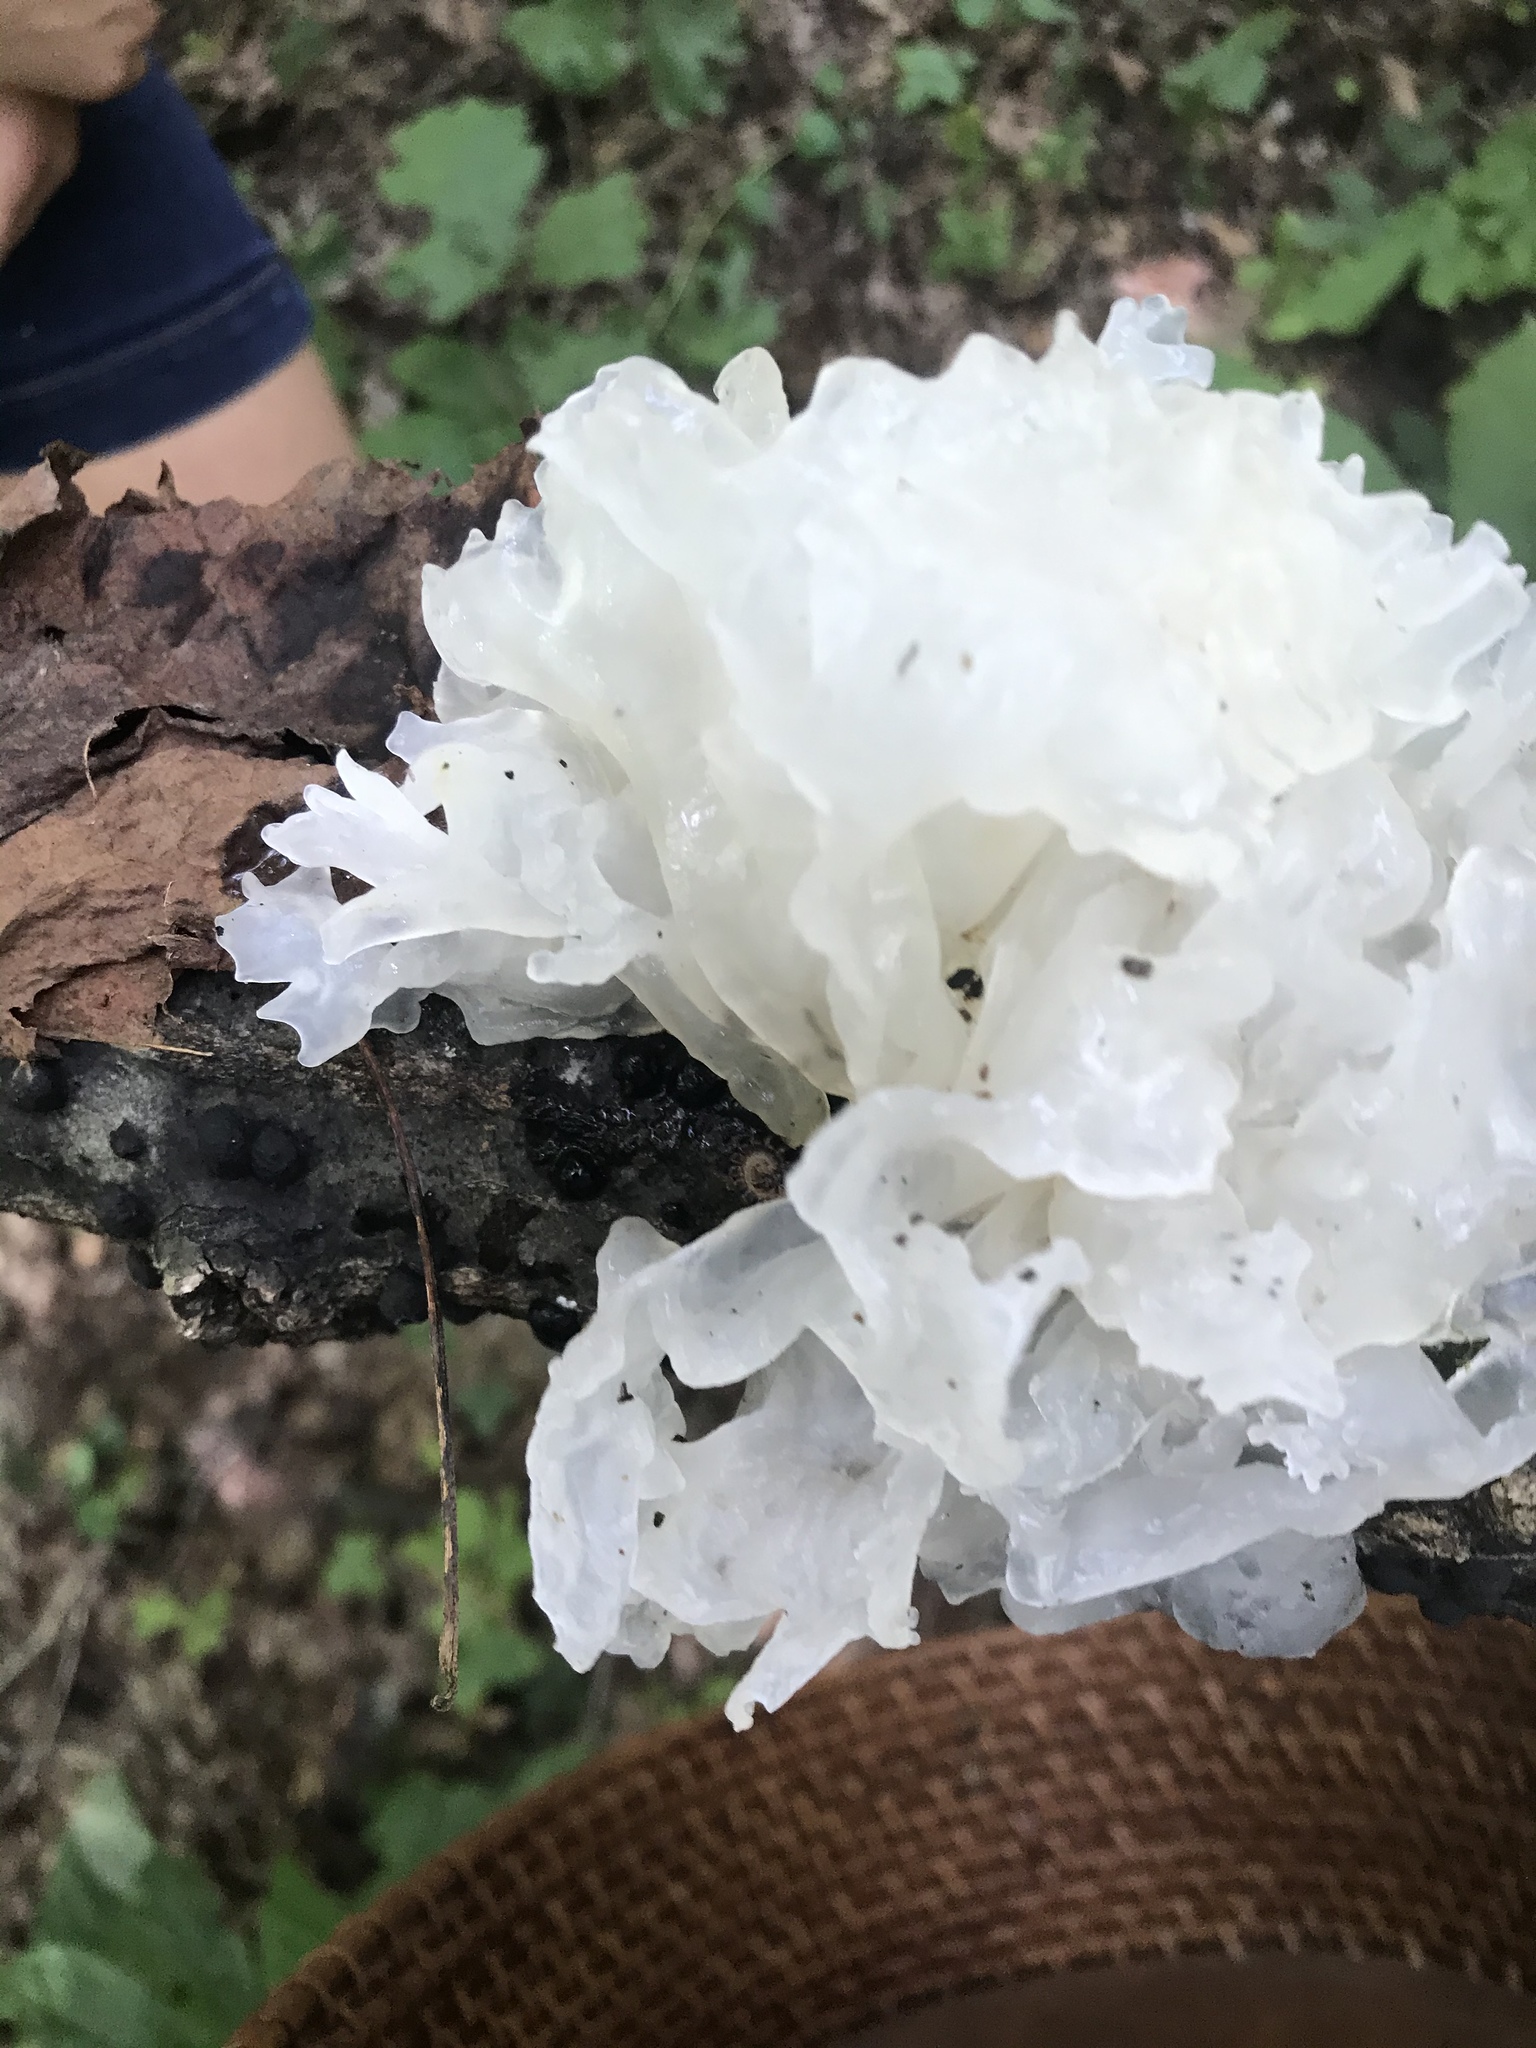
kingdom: Fungi
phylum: Basidiomycota
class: Tremellomycetes
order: Tremellales
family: Tremellaceae
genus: Tremella
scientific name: Tremella fuciformis
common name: Snow fungus
